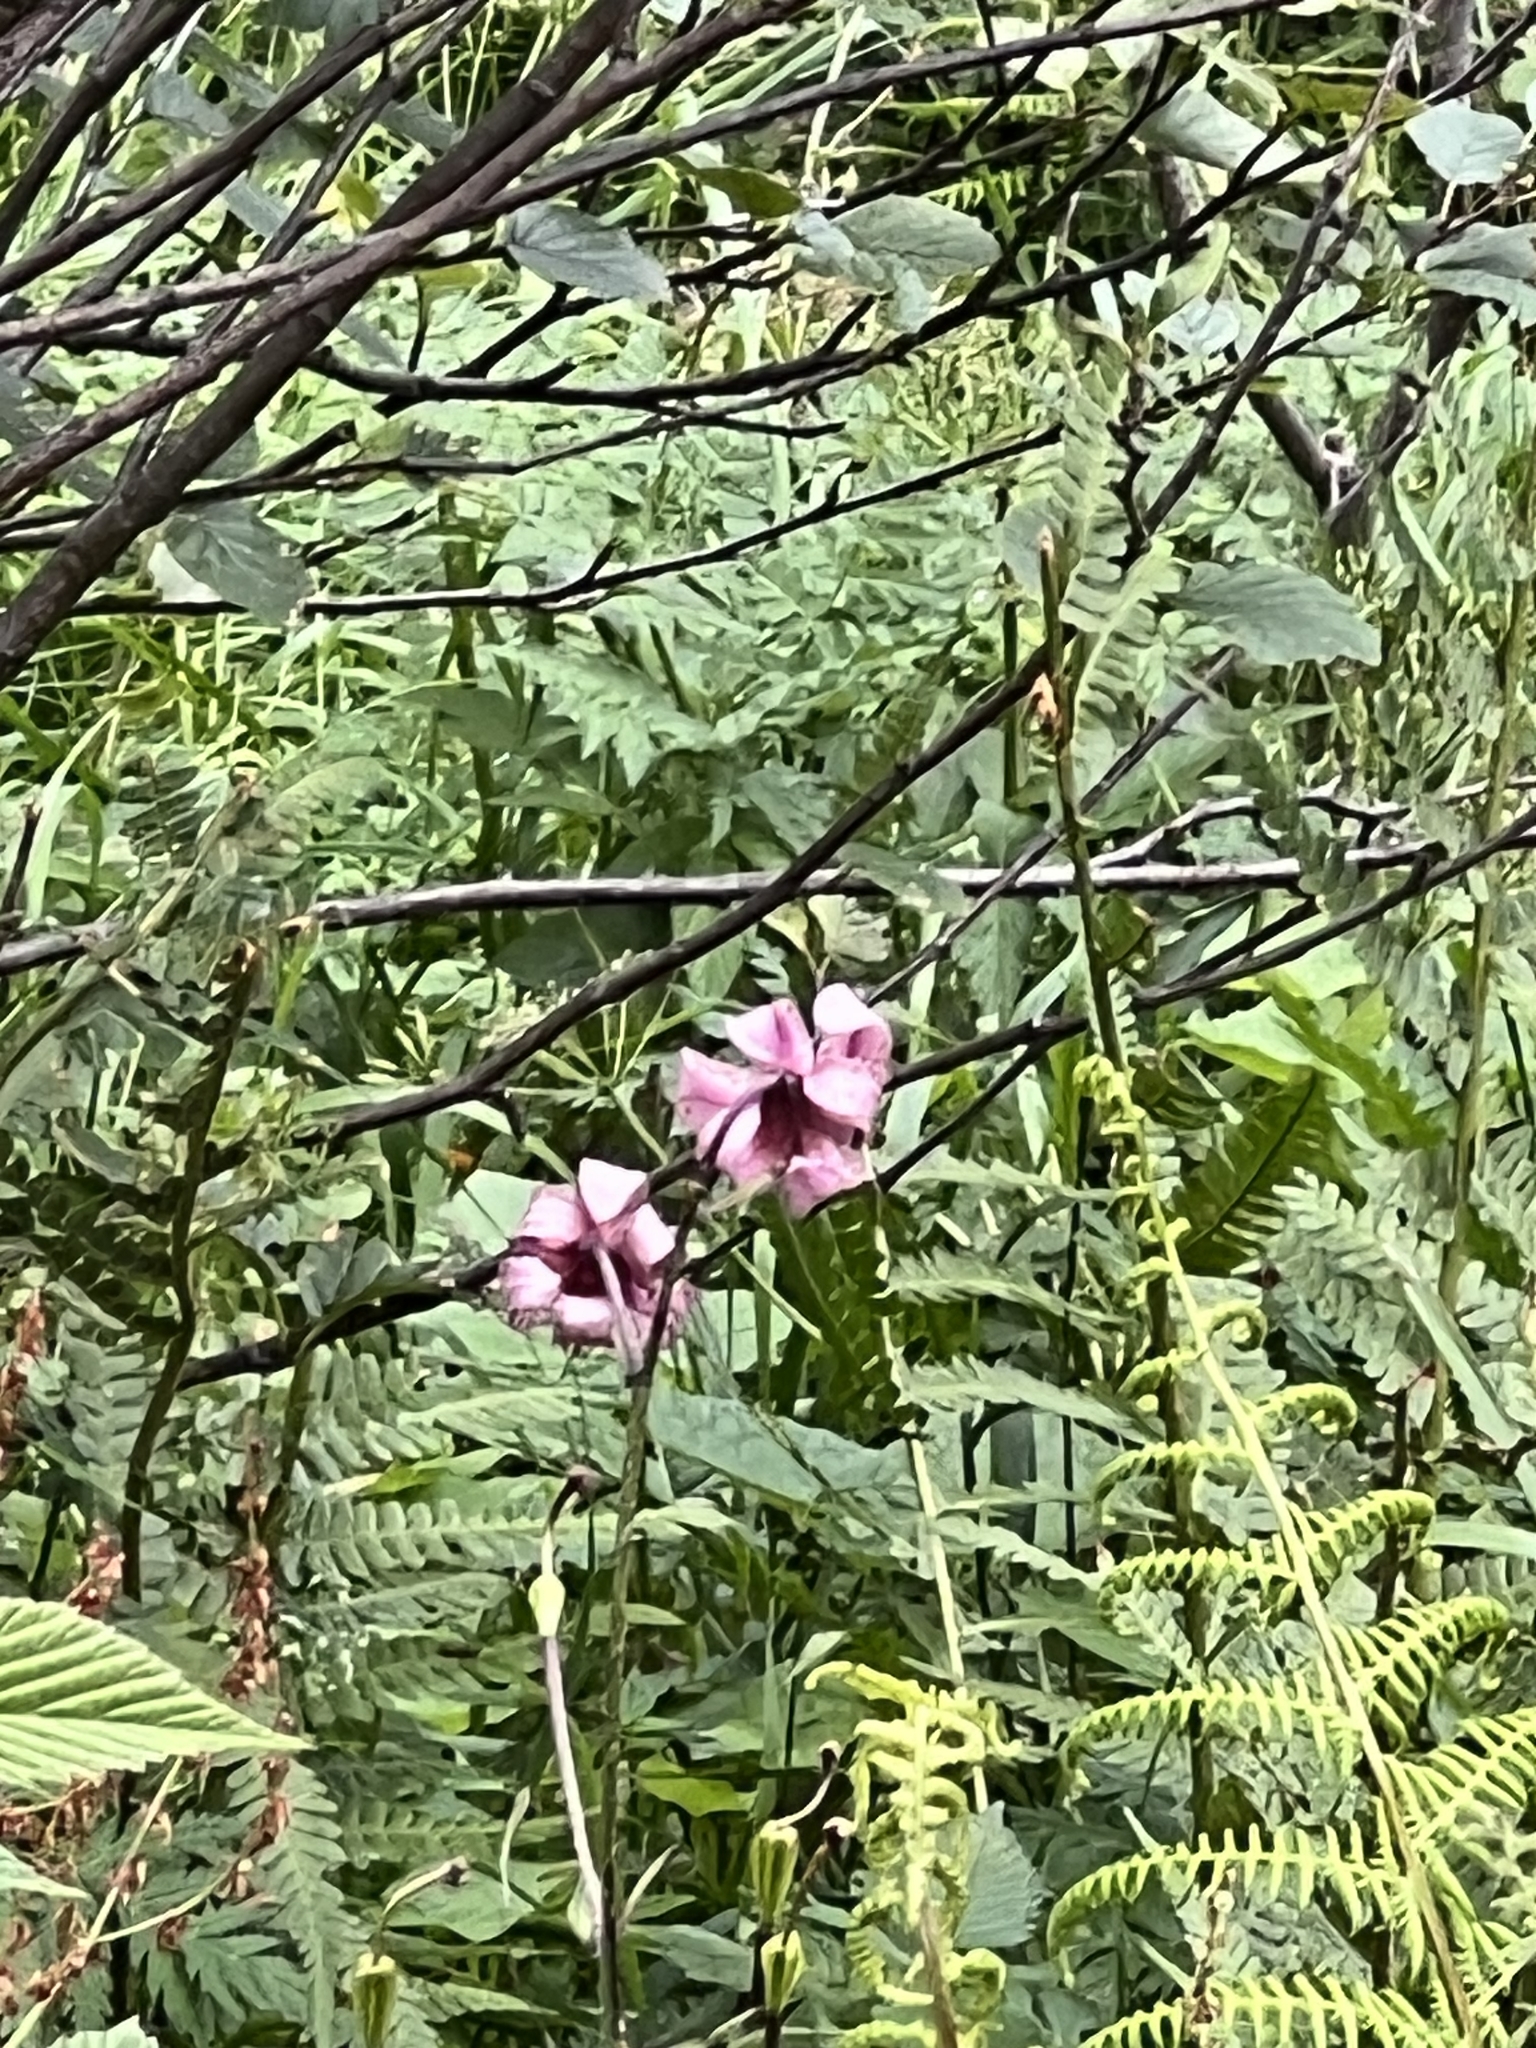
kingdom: Plantae
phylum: Tracheophyta
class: Liliopsida
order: Liliales
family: Liliaceae
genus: Lilium
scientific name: Lilium martagon
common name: Martagon lily
